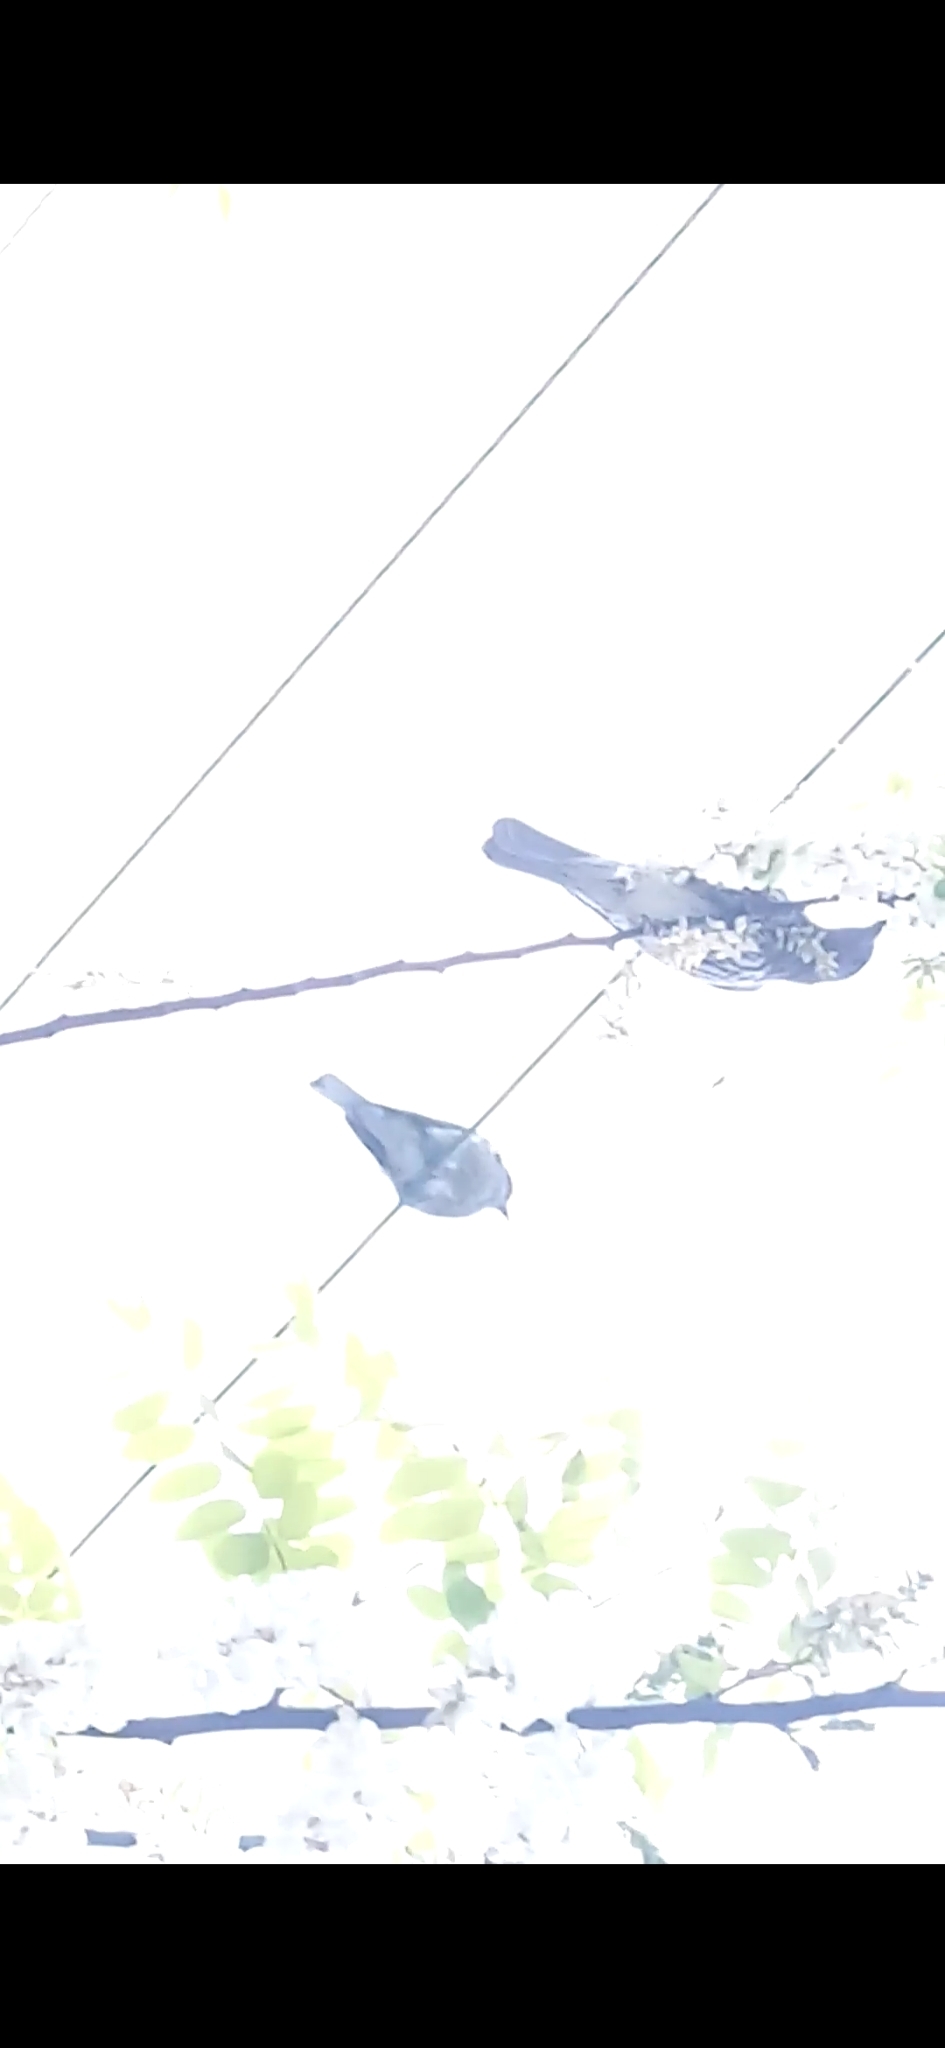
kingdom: Animalia
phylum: Chordata
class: Aves
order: Passeriformes
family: Oriolidae
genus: Sphecotheres
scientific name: Sphecotheres vieilloti
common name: Australasian figbird
